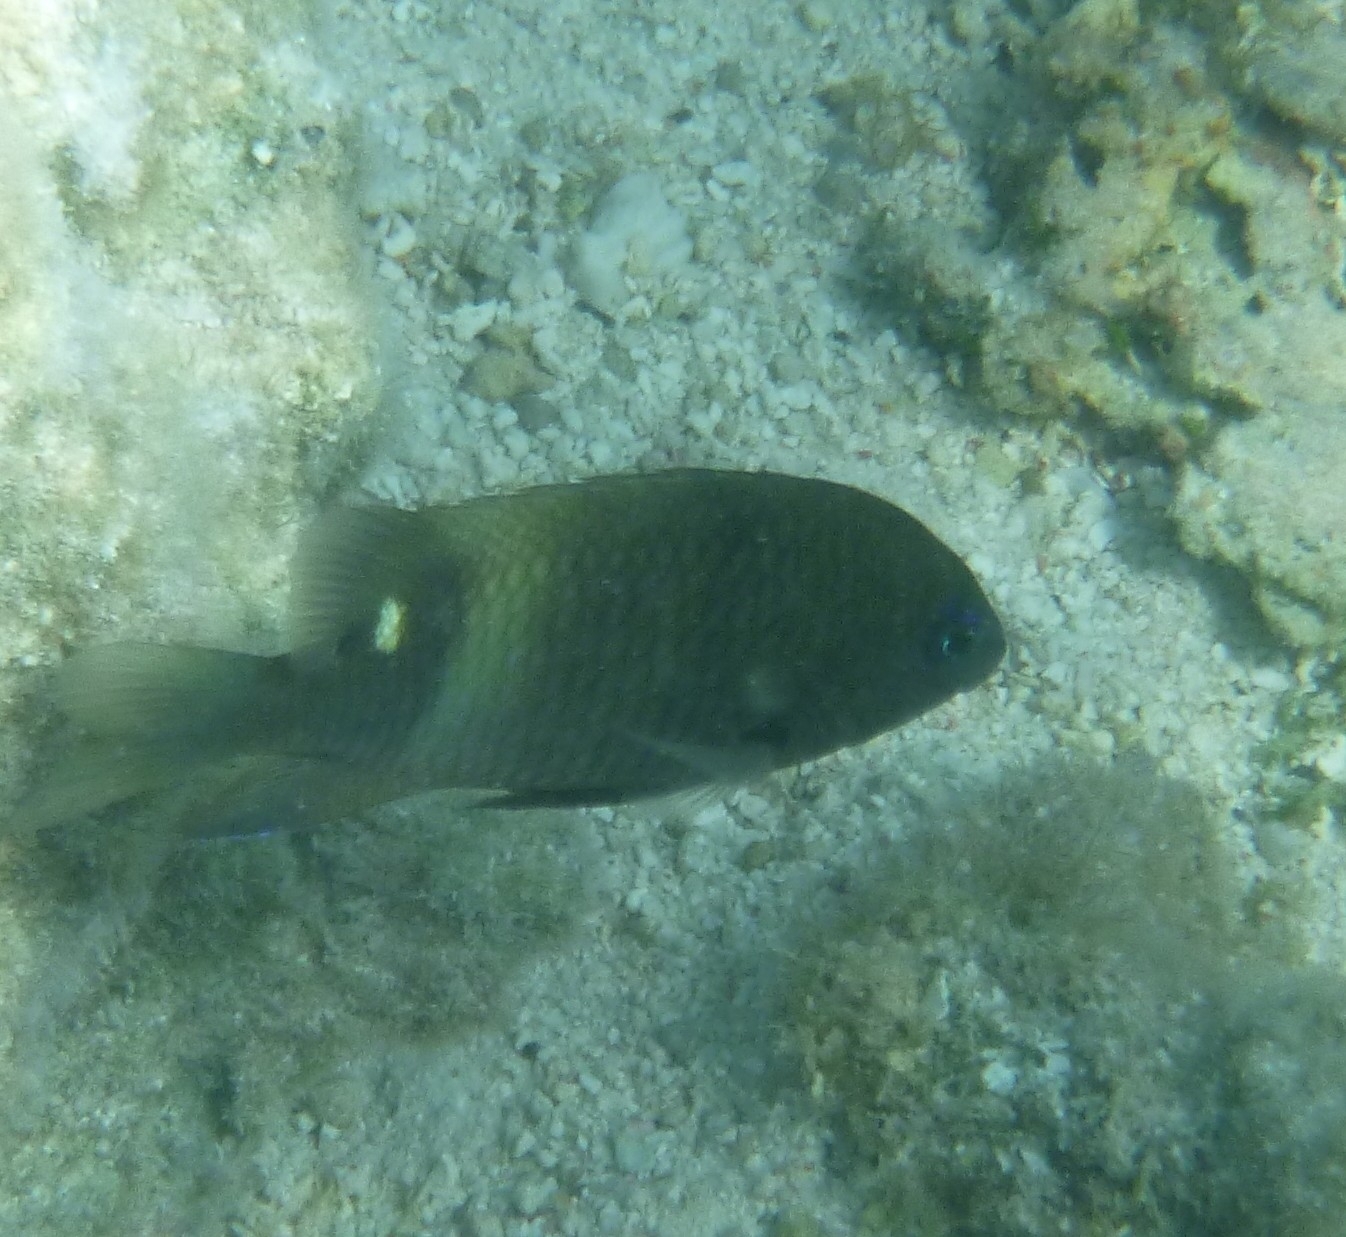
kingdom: Animalia
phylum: Chordata
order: Perciformes
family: Pomacentridae
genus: Stegastes
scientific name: Stegastes albifasciatus
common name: Whitebar gregory
